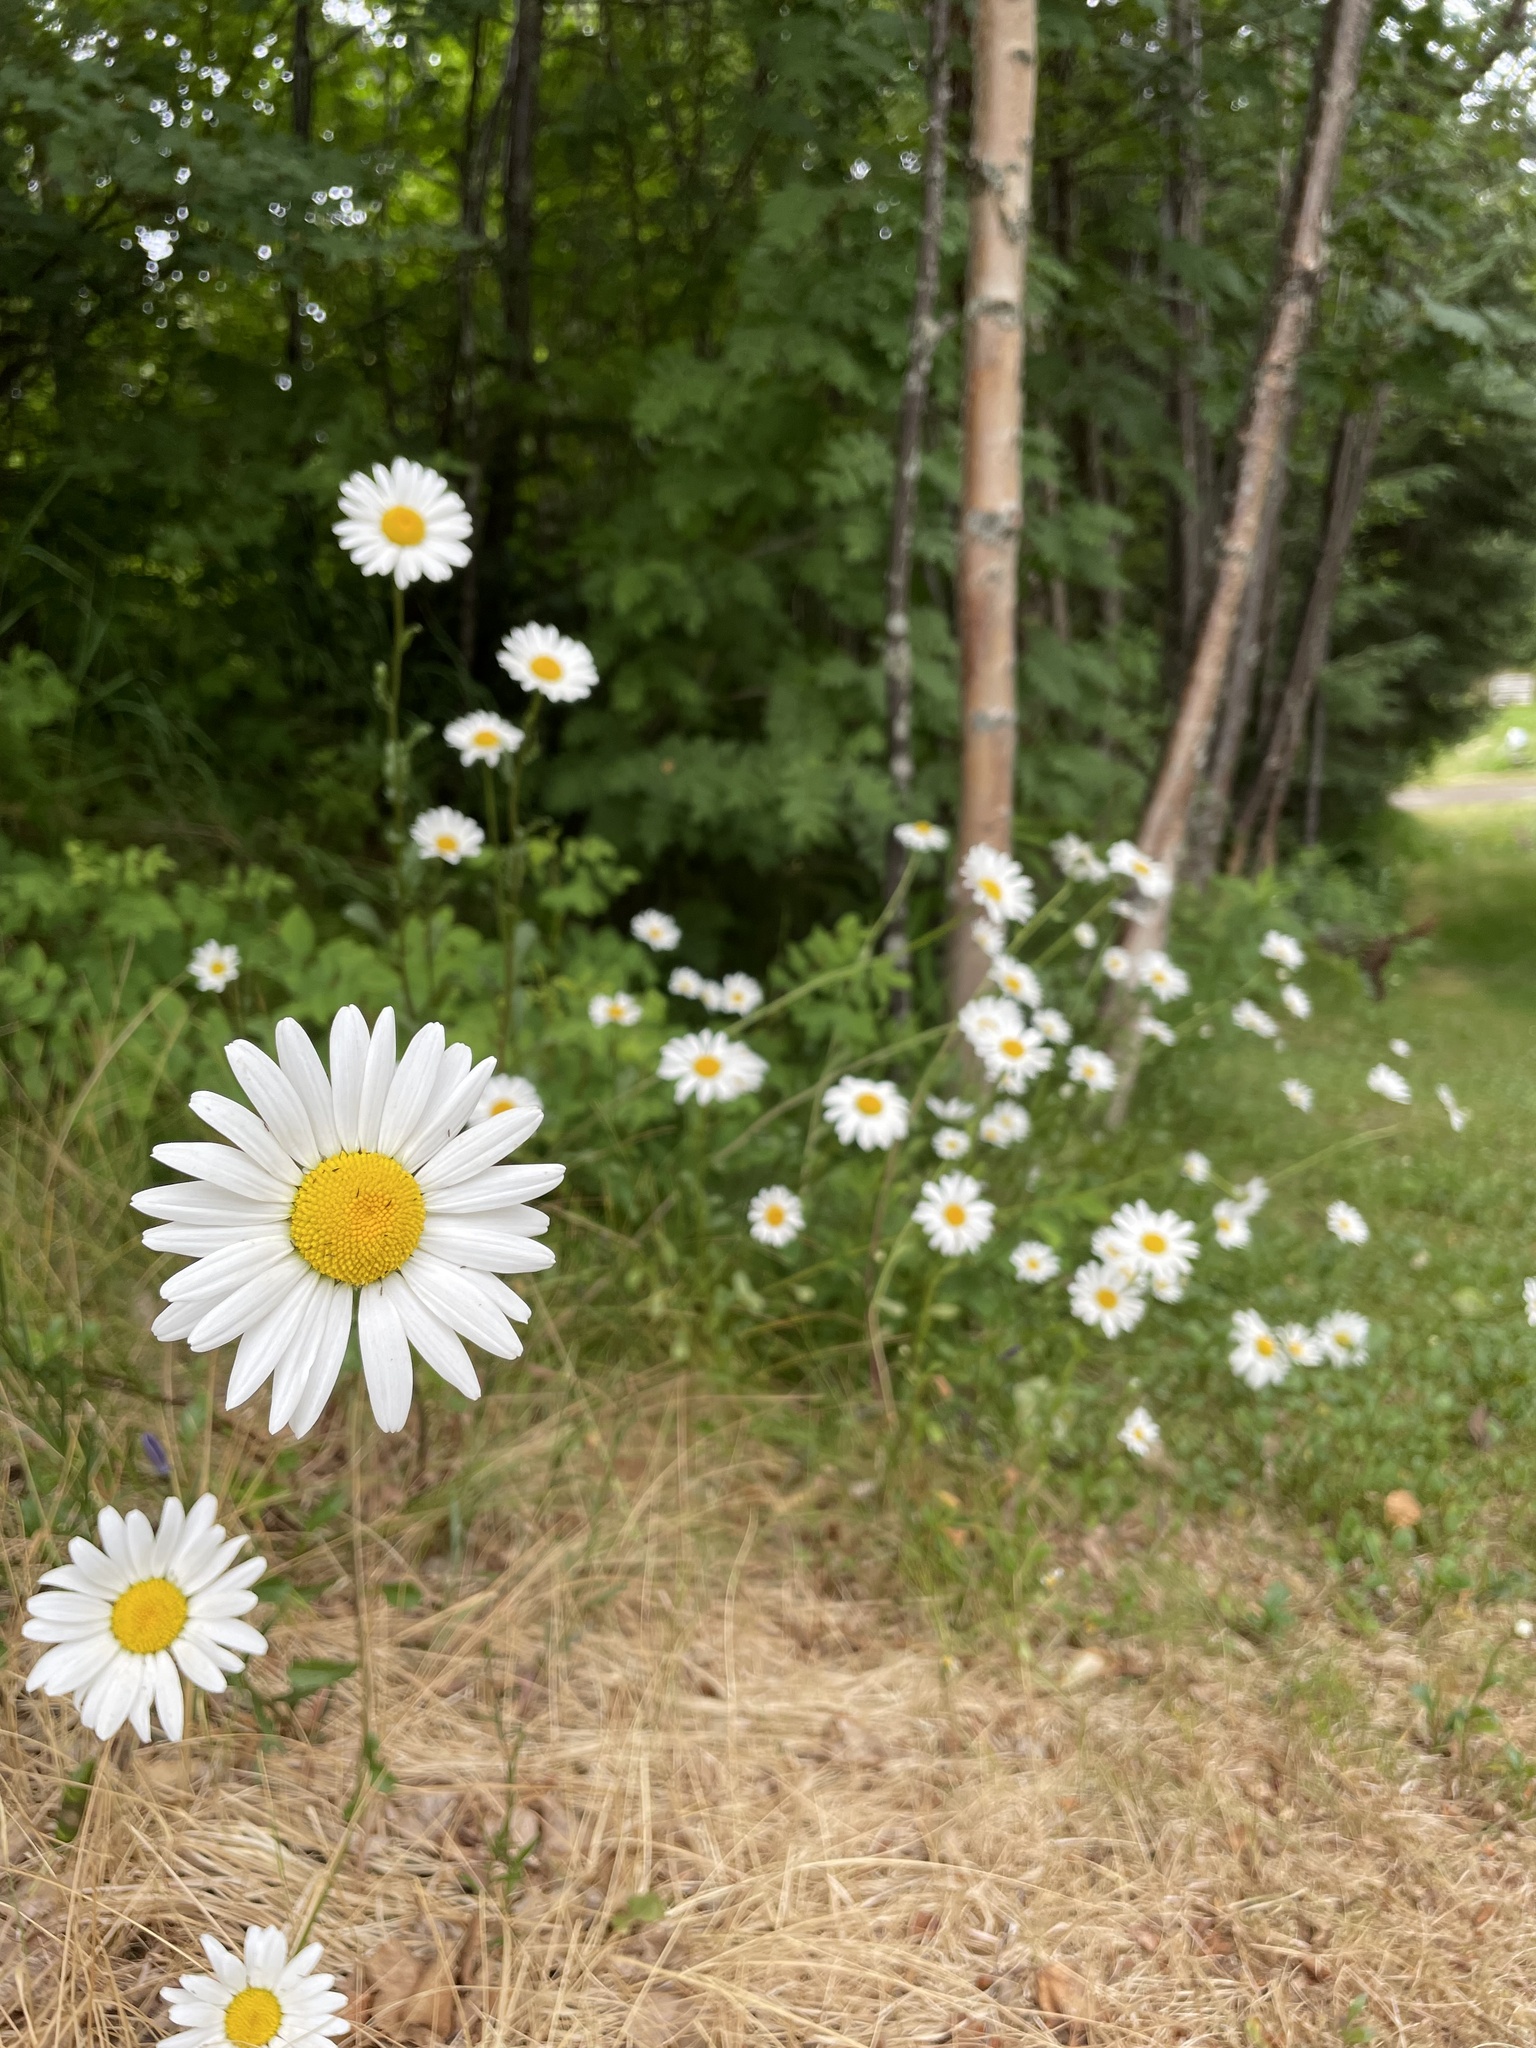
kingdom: Plantae
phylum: Tracheophyta
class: Magnoliopsida
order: Asterales
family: Asteraceae
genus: Leucanthemum
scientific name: Leucanthemum vulgare
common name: Oxeye daisy
